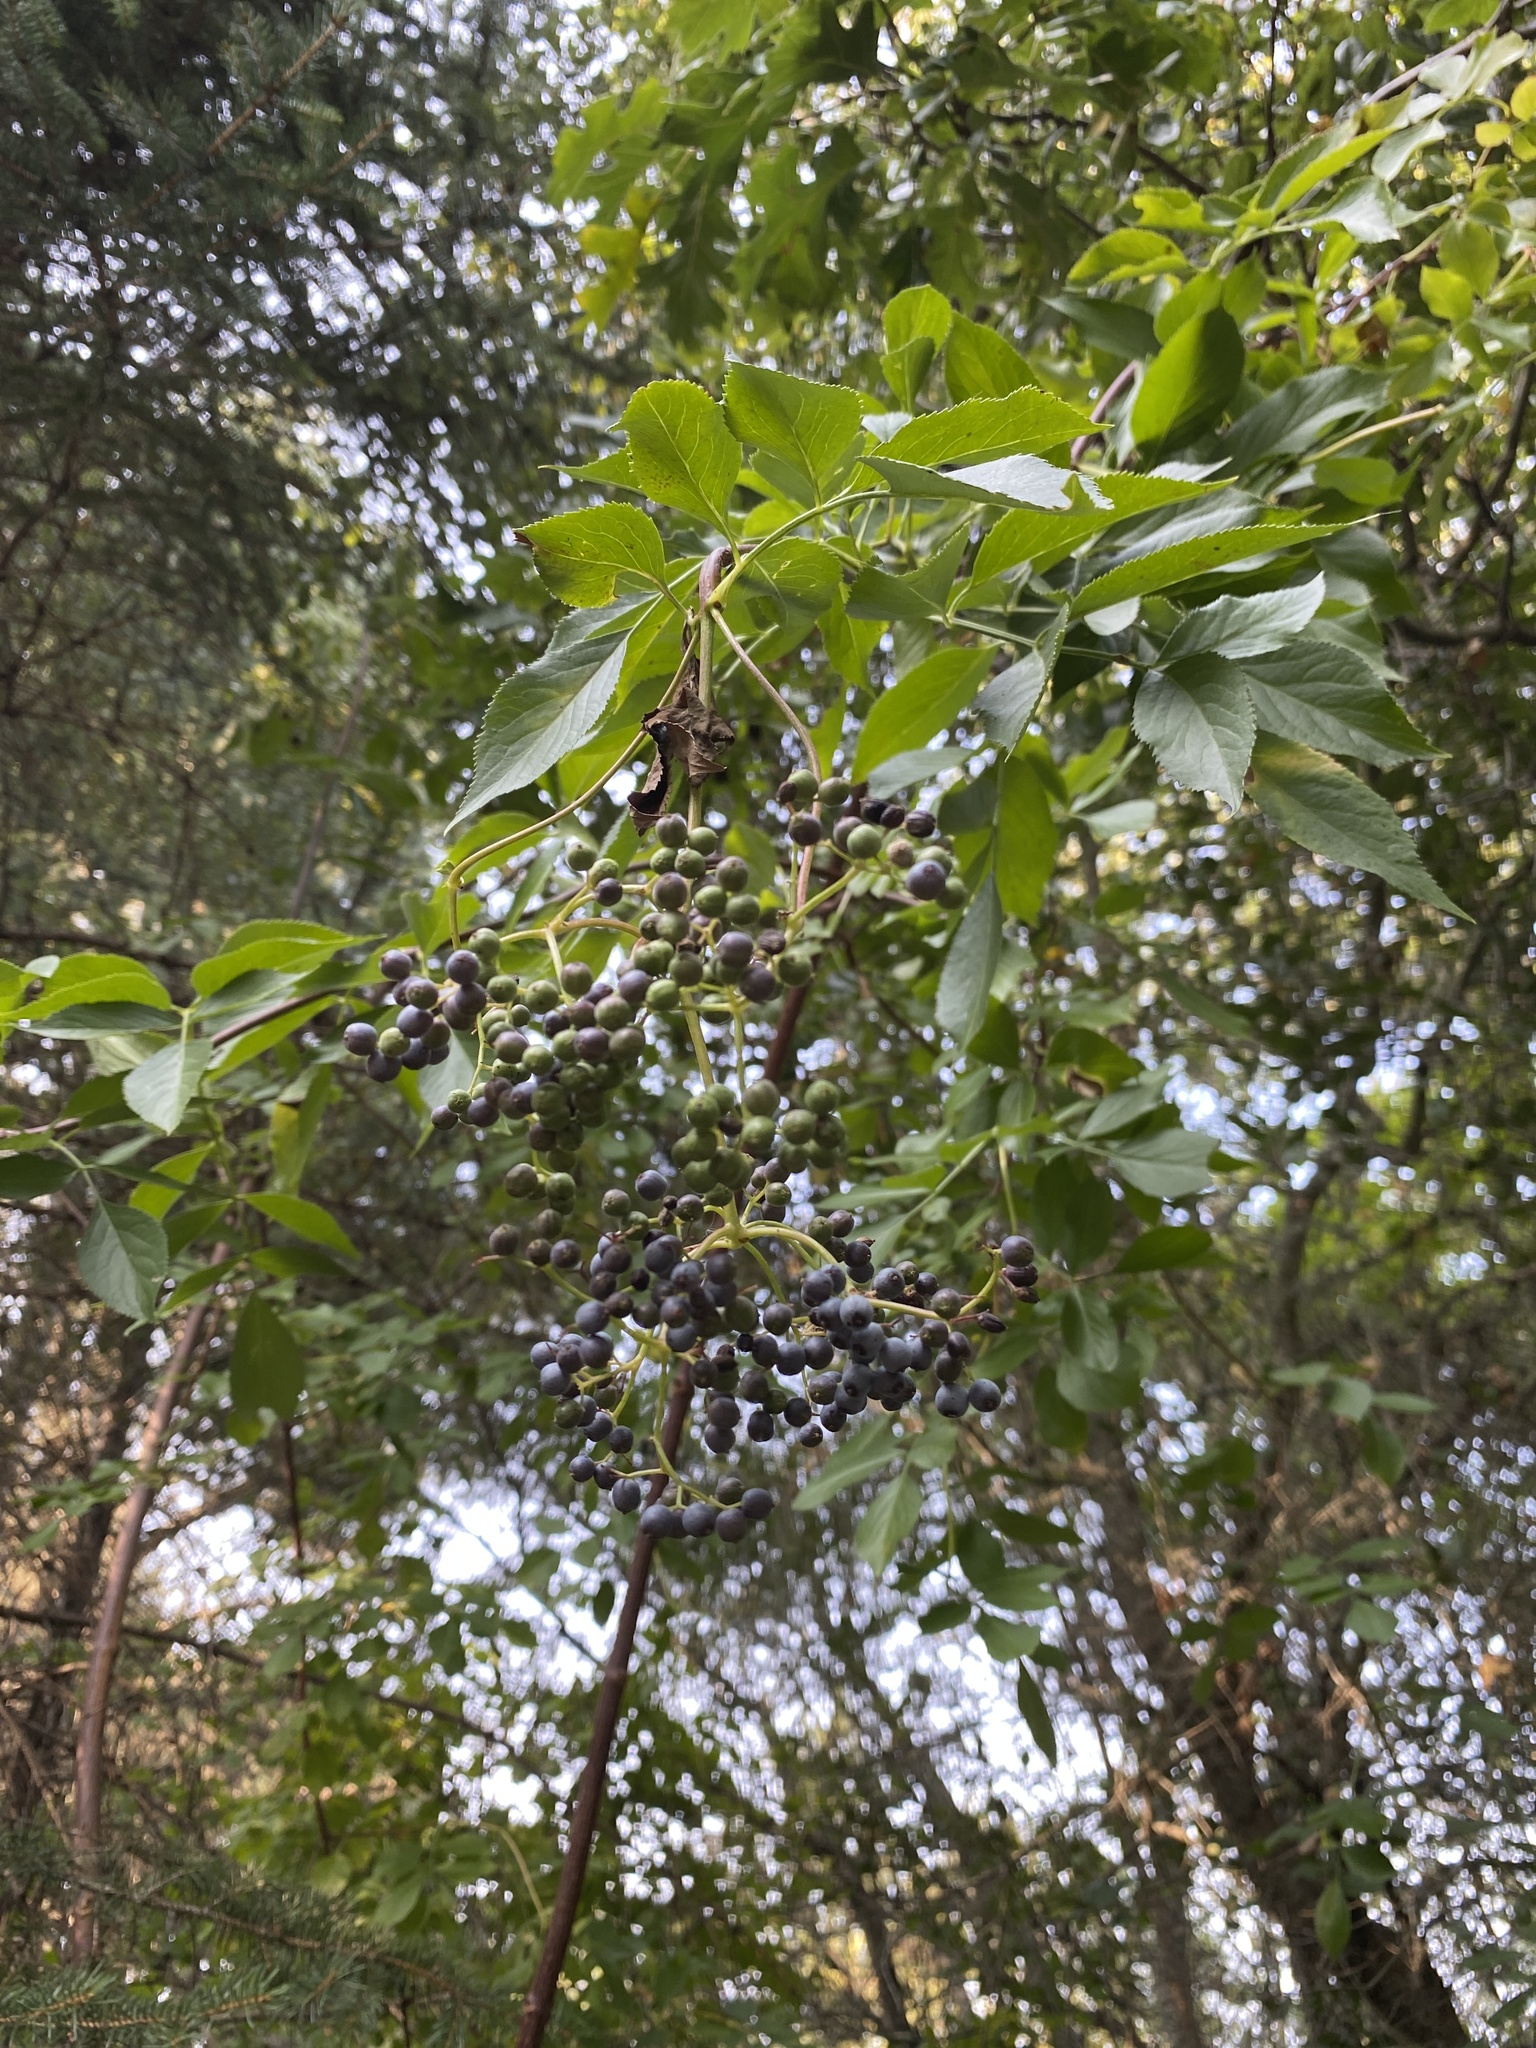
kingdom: Plantae
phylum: Tracheophyta
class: Magnoliopsida
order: Dipsacales
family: Viburnaceae
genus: Sambucus
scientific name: Sambucus cerulea
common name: Blue elder
